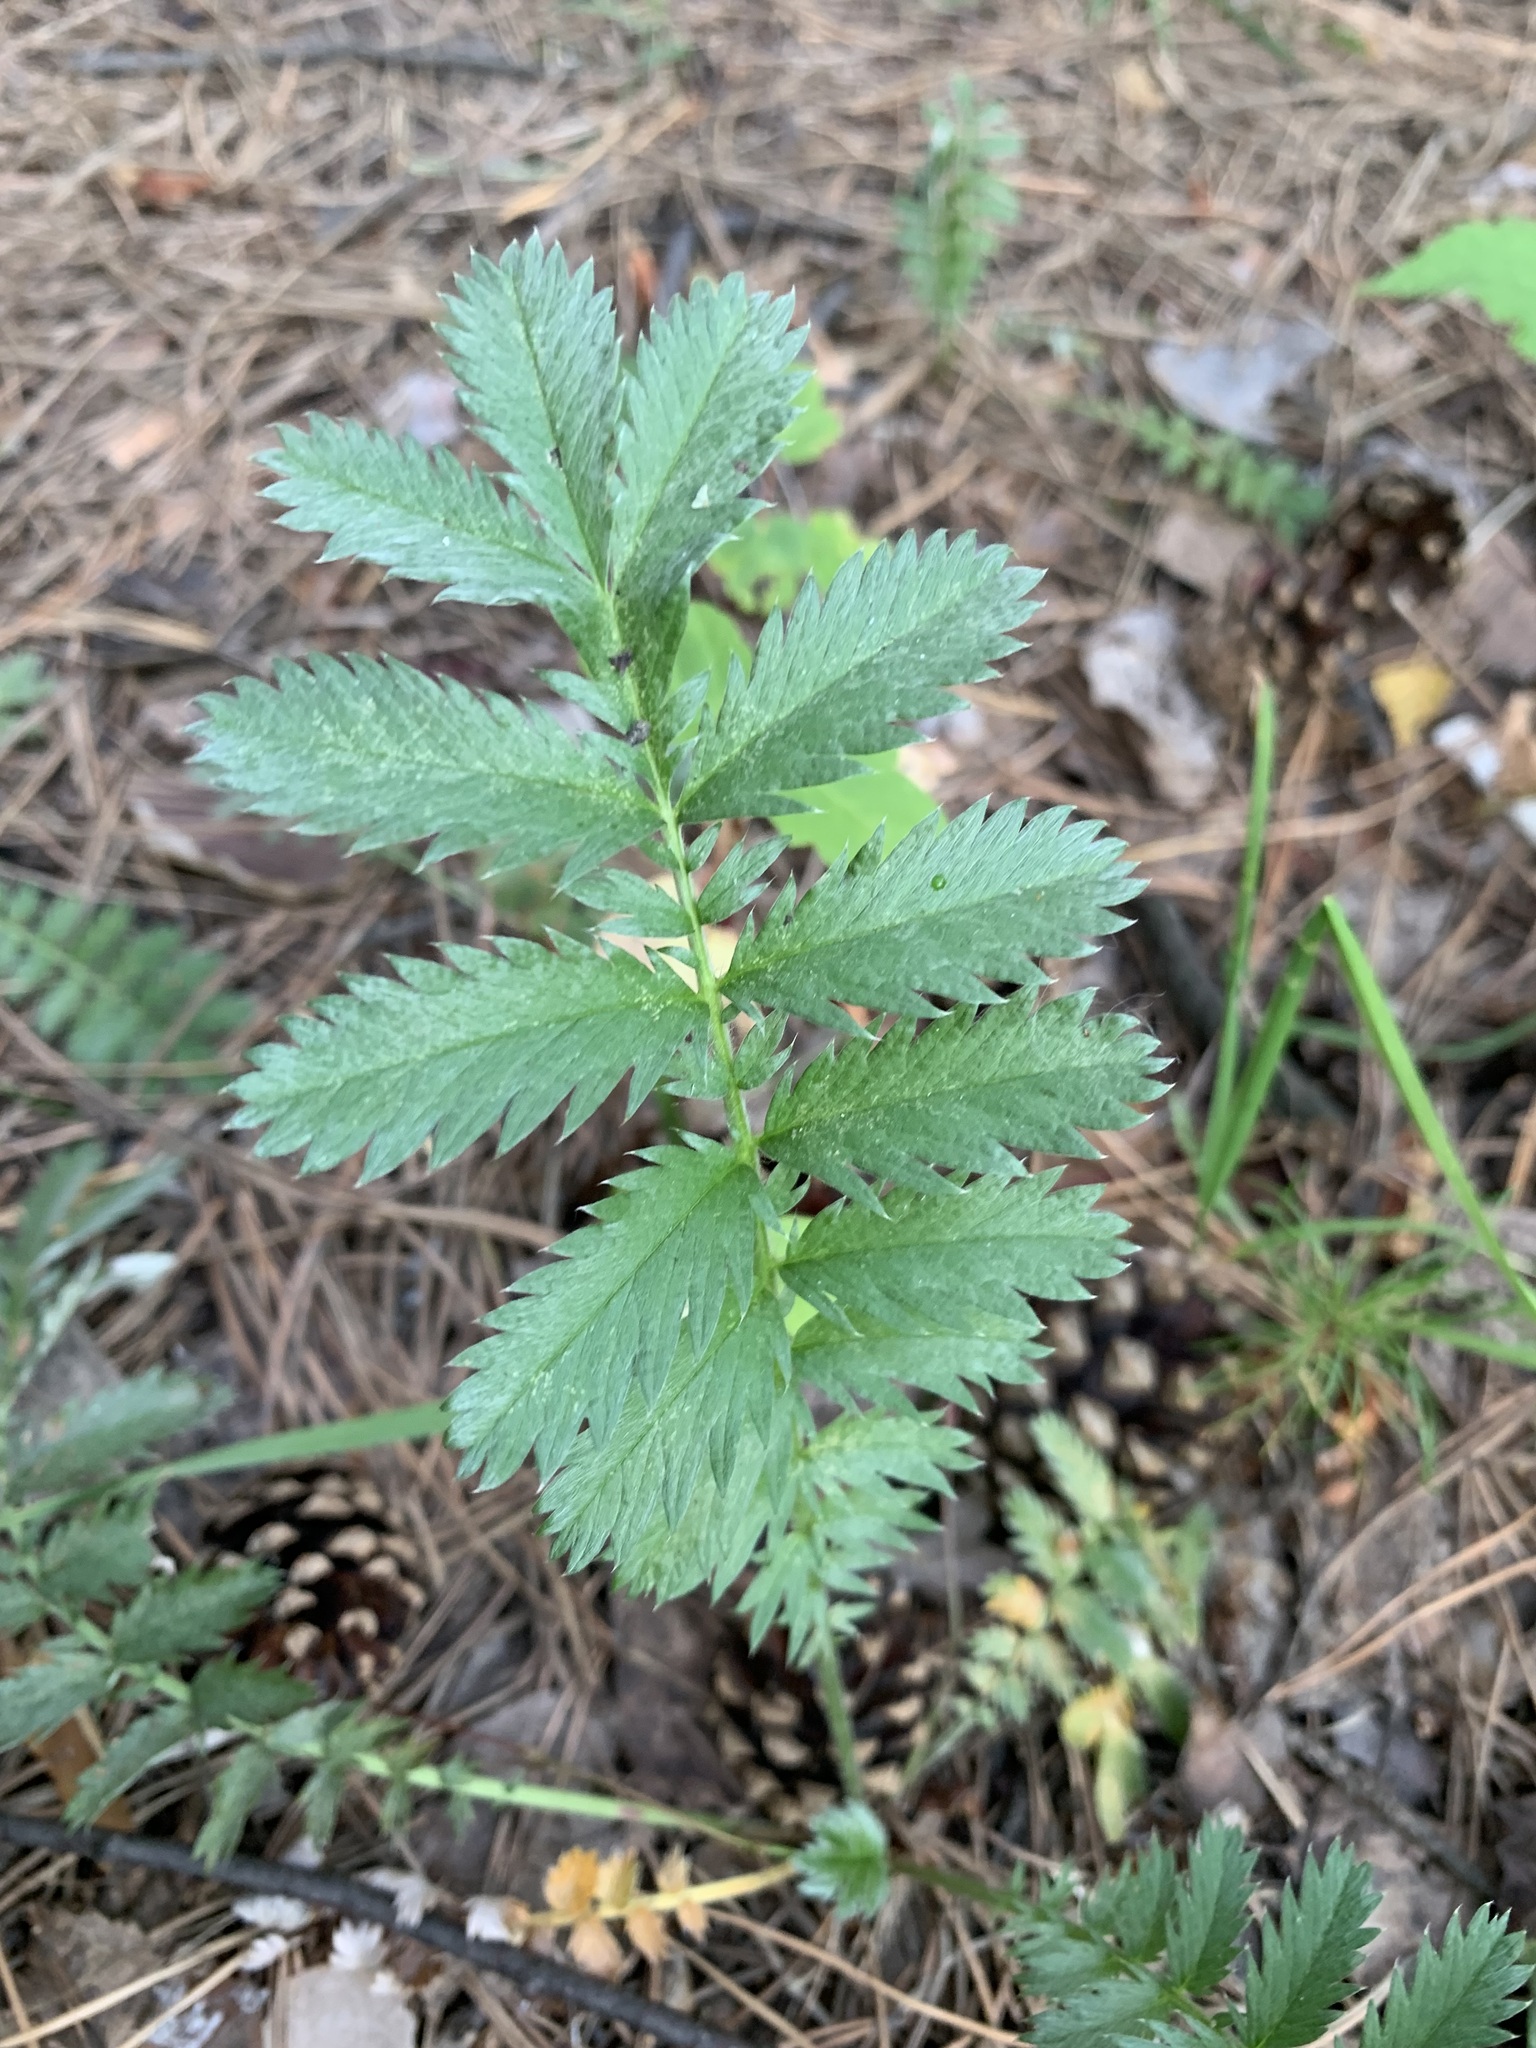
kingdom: Plantae
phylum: Tracheophyta
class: Magnoliopsida
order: Rosales
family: Rosaceae
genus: Argentina
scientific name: Argentina anserina
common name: Common silverweed
